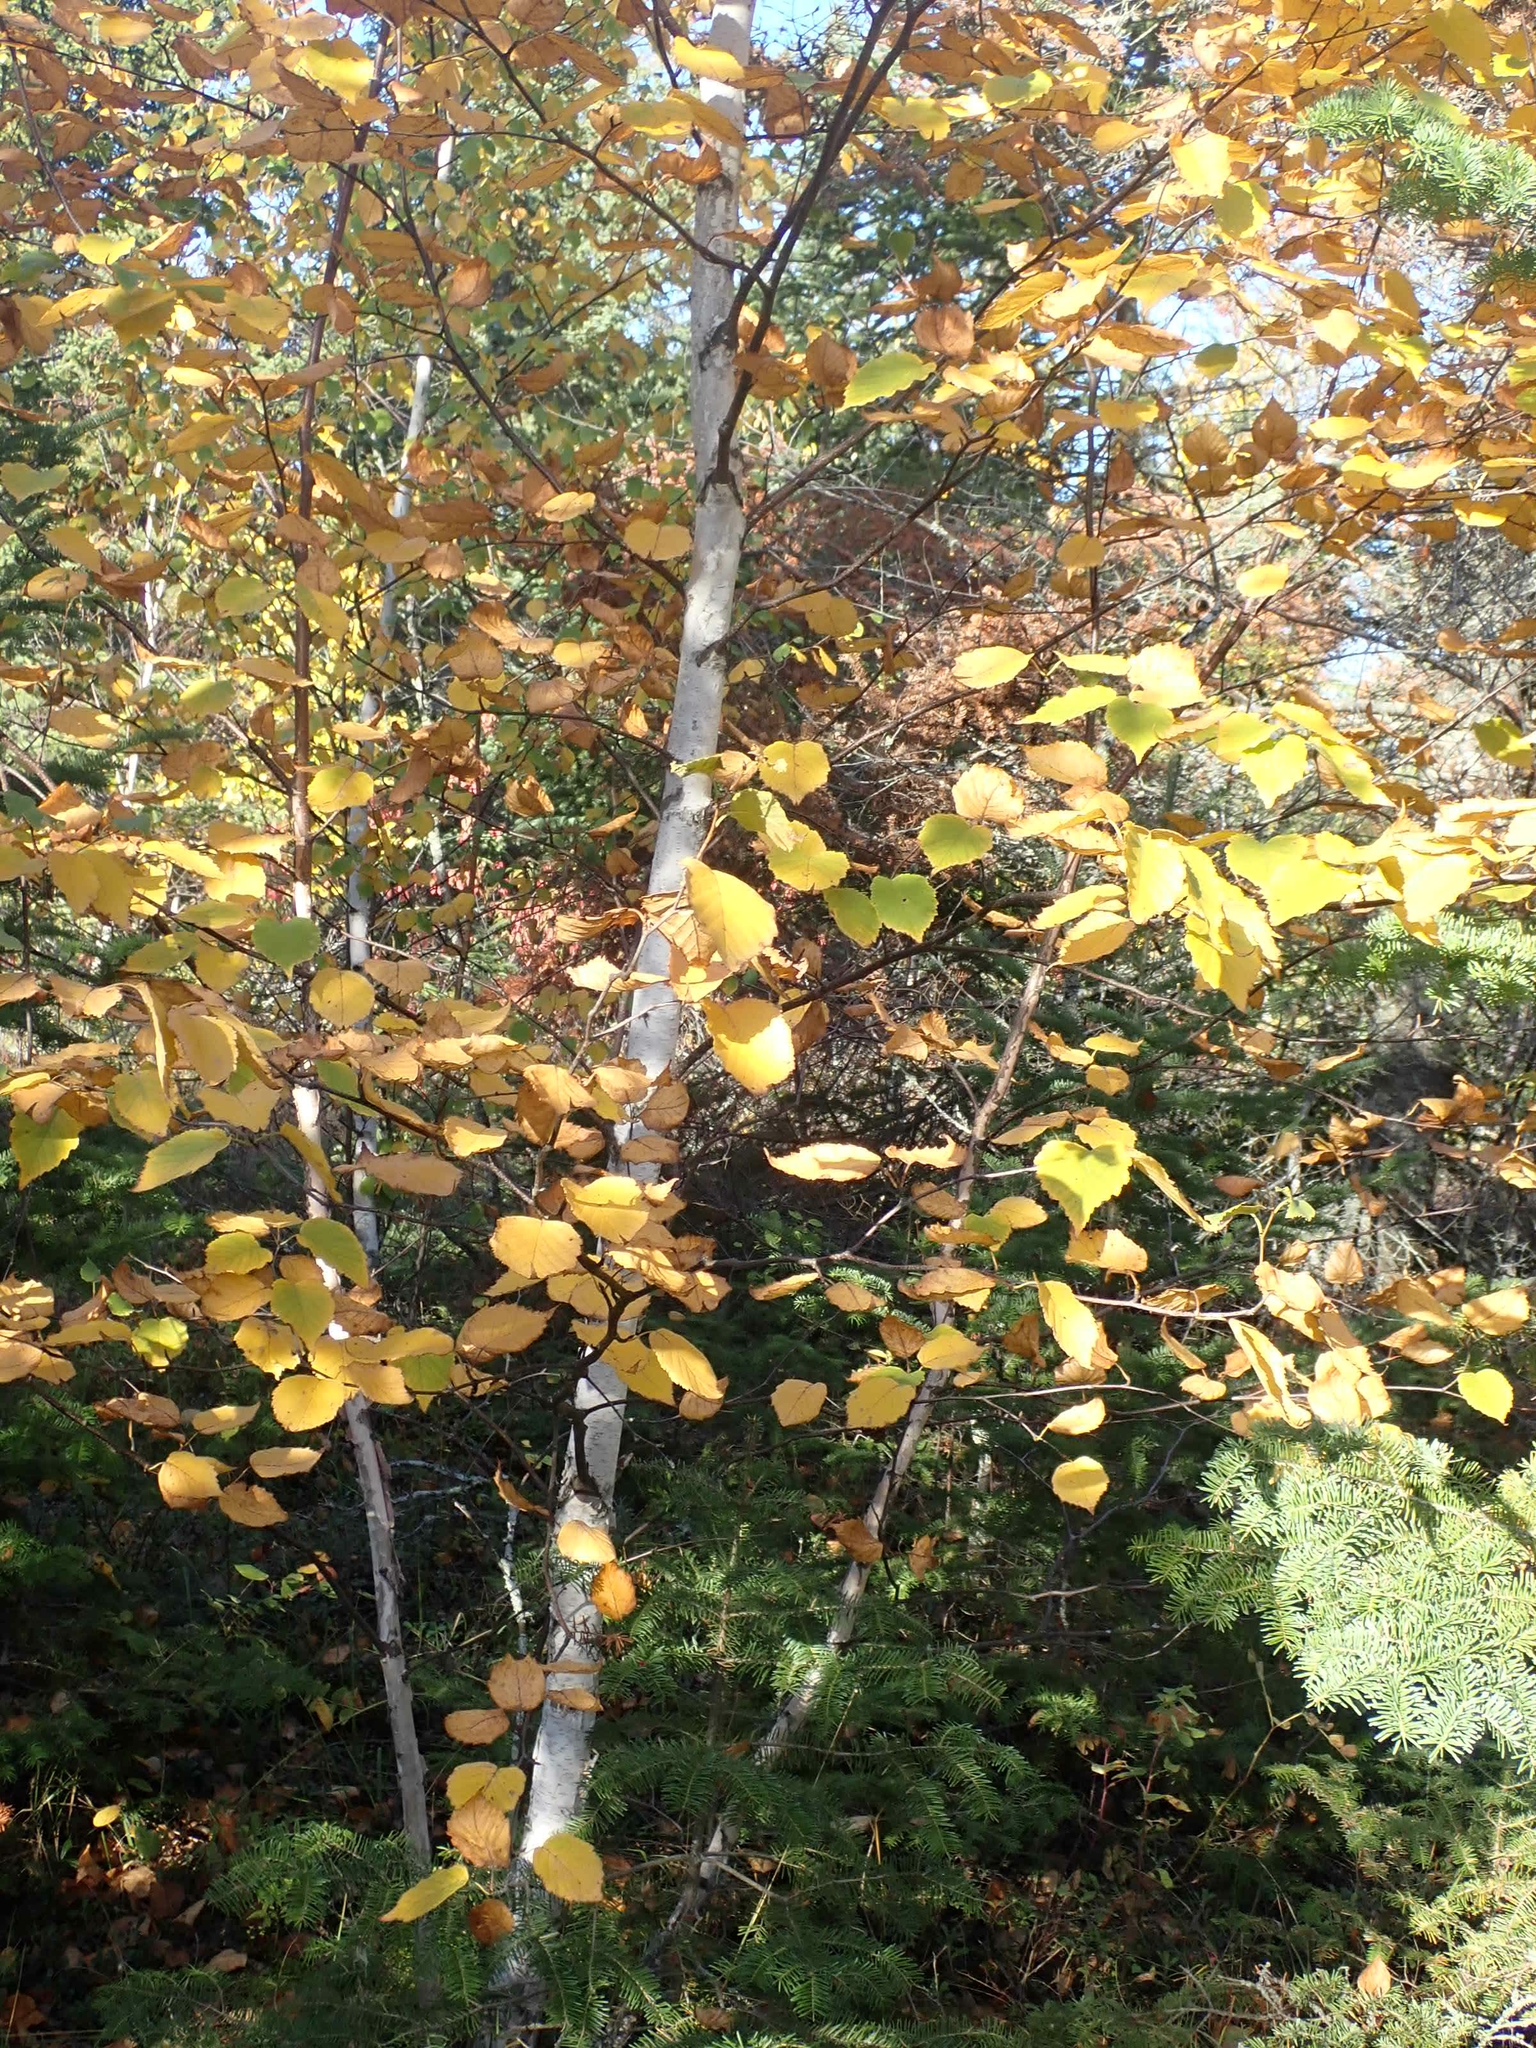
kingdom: Plantae
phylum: Tracheophyta
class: Magnoliopsida
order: Fagales
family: Betulaceae
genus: Betula
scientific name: Betula papyrifera
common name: Paper birch
